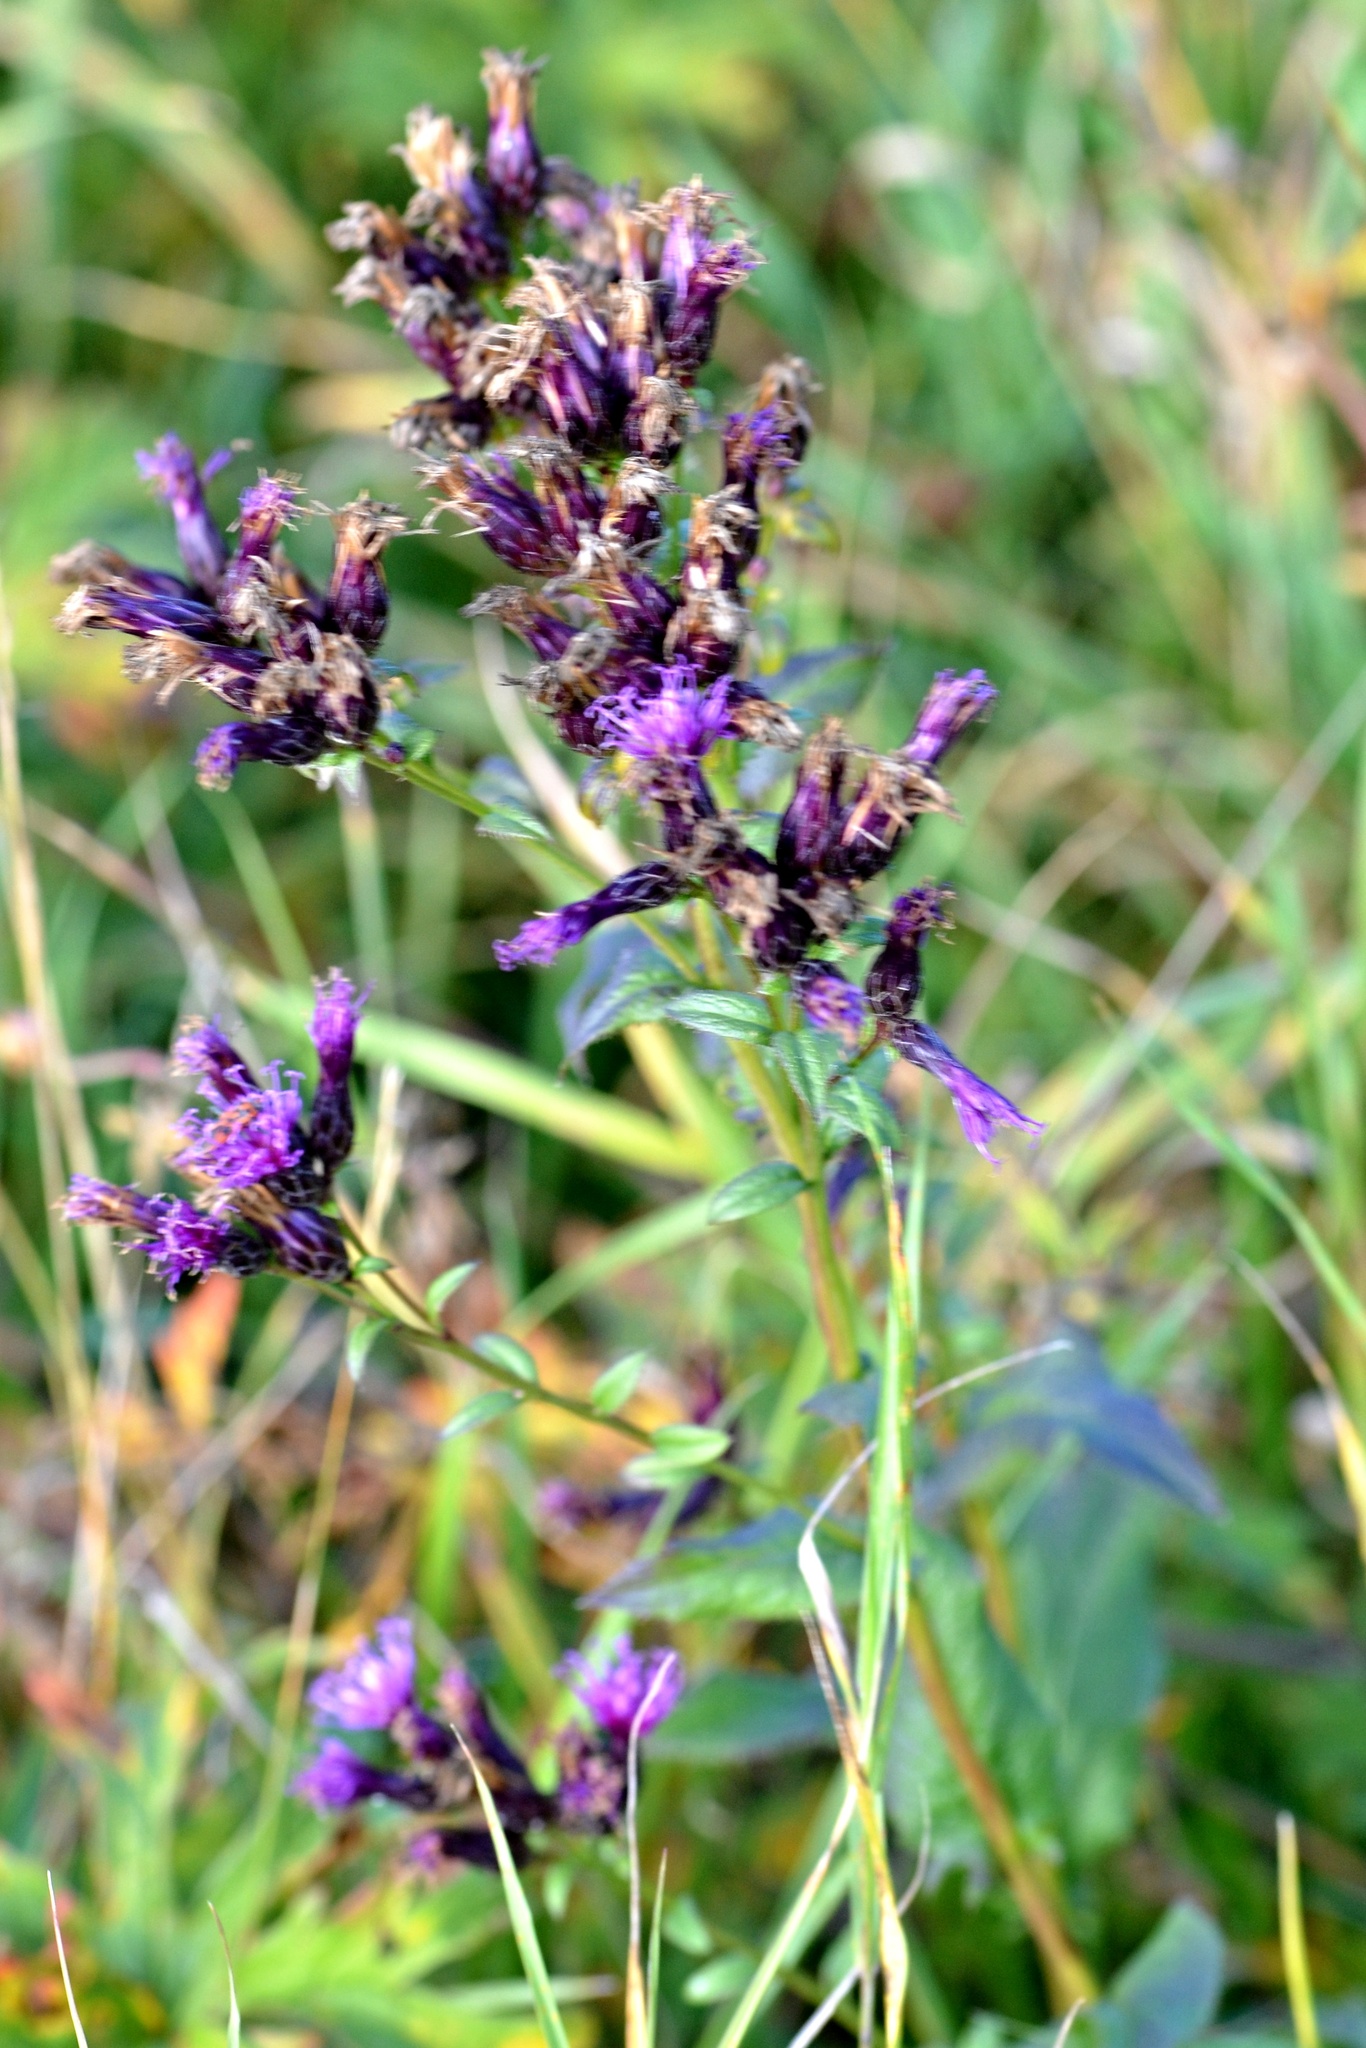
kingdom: Plantae
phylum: Tracheophyta
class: Magnoliopsida
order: Asterales
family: Asteraceae
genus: Serratula
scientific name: Serratula tinctoria
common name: Saw-wort
